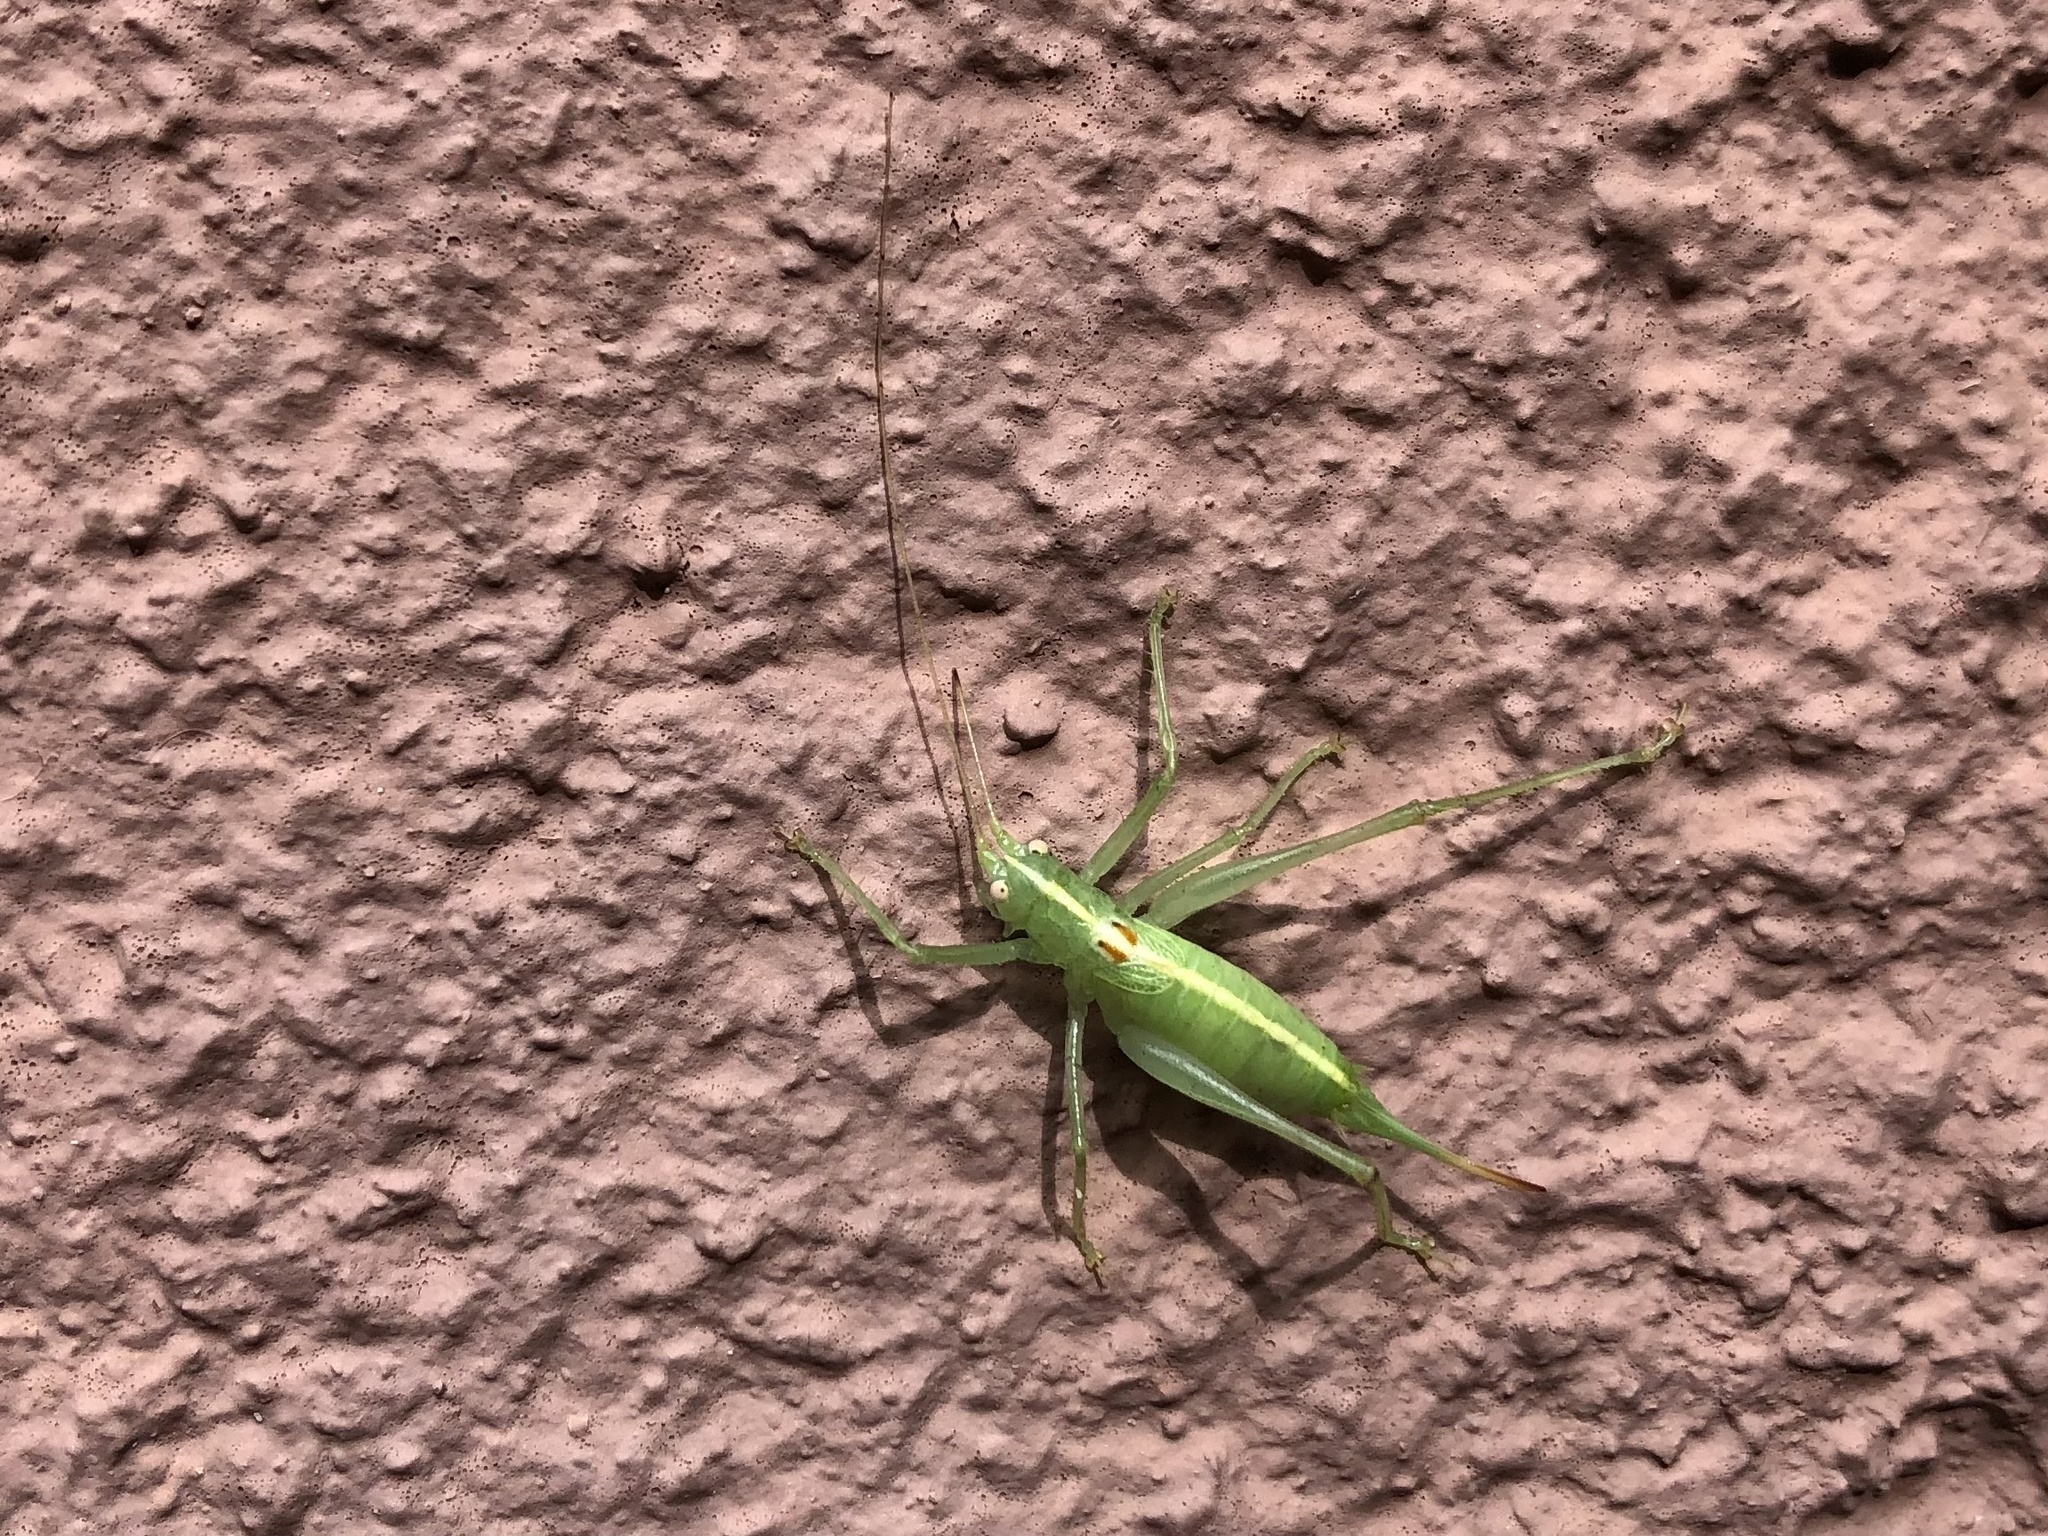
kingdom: Animalia
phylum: Arthropoda
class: Insecta
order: Orthoptera
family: Tettigoniidae
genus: Meconema
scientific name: Meconema meridionale
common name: Southern oak bush-cricket
